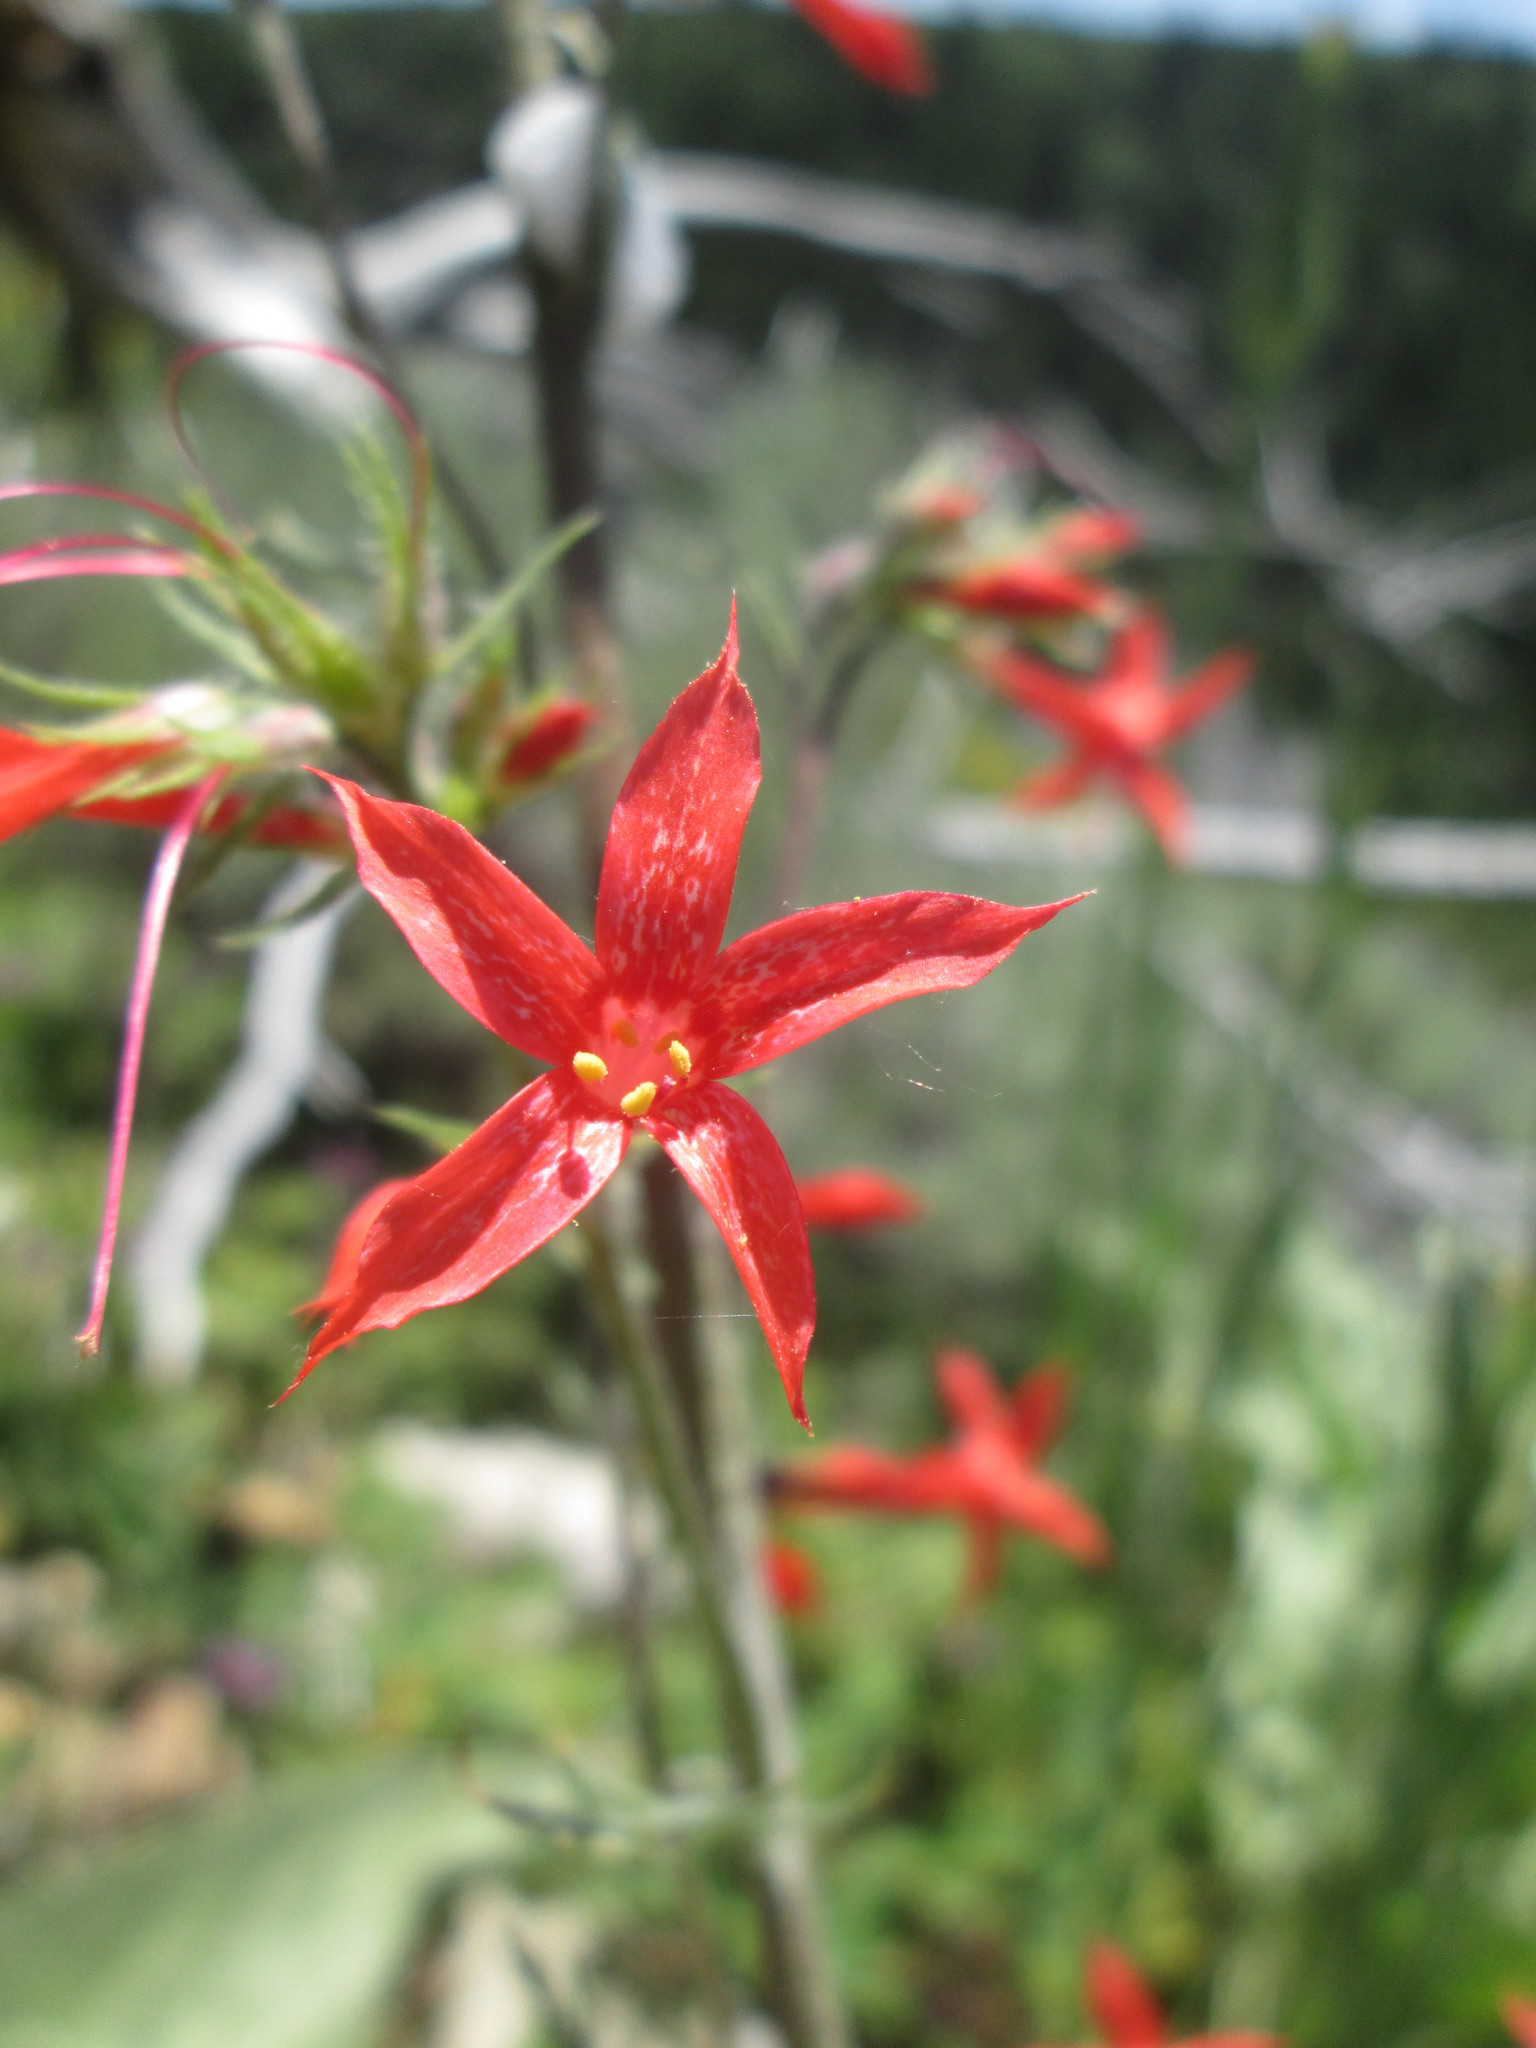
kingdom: Plantae
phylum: Tracheophyta
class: Magnoliopsida
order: Ericales
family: Polemoniaceae
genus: Ipomopsis
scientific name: Ipomopsis aggregata
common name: Scarlet gilia
